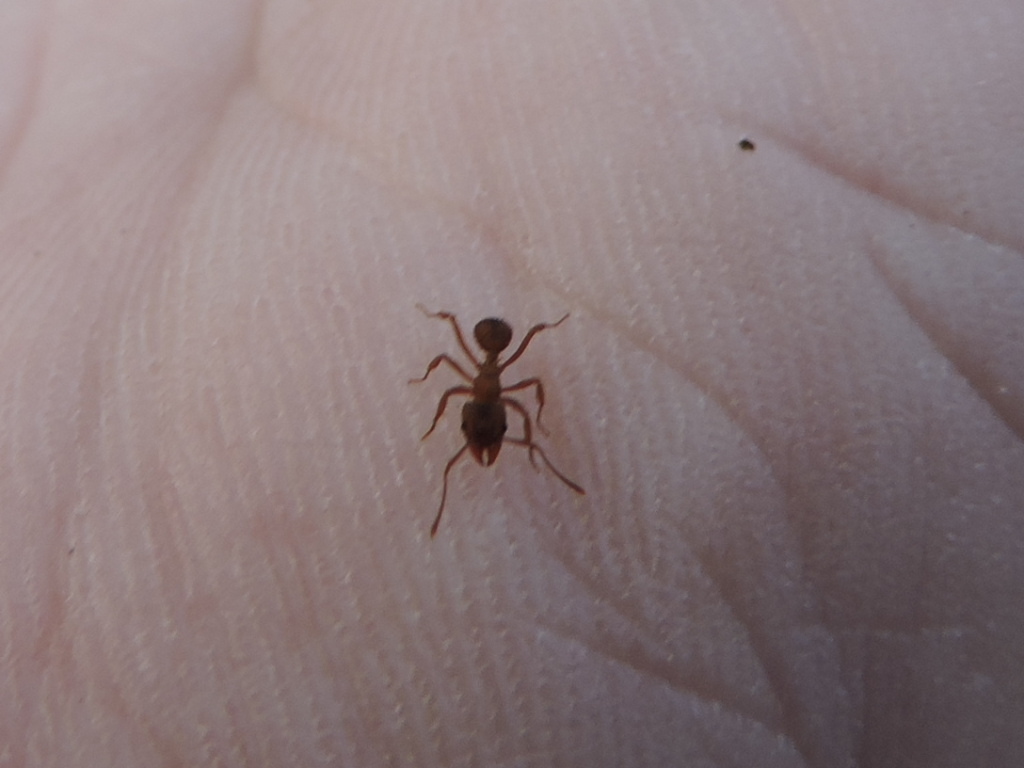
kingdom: Animalia
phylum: Arthropoda
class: Insecta
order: Hymenoptera
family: Formicidae
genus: Trachymyrmex
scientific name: Trachymyrmex septentrionalis
